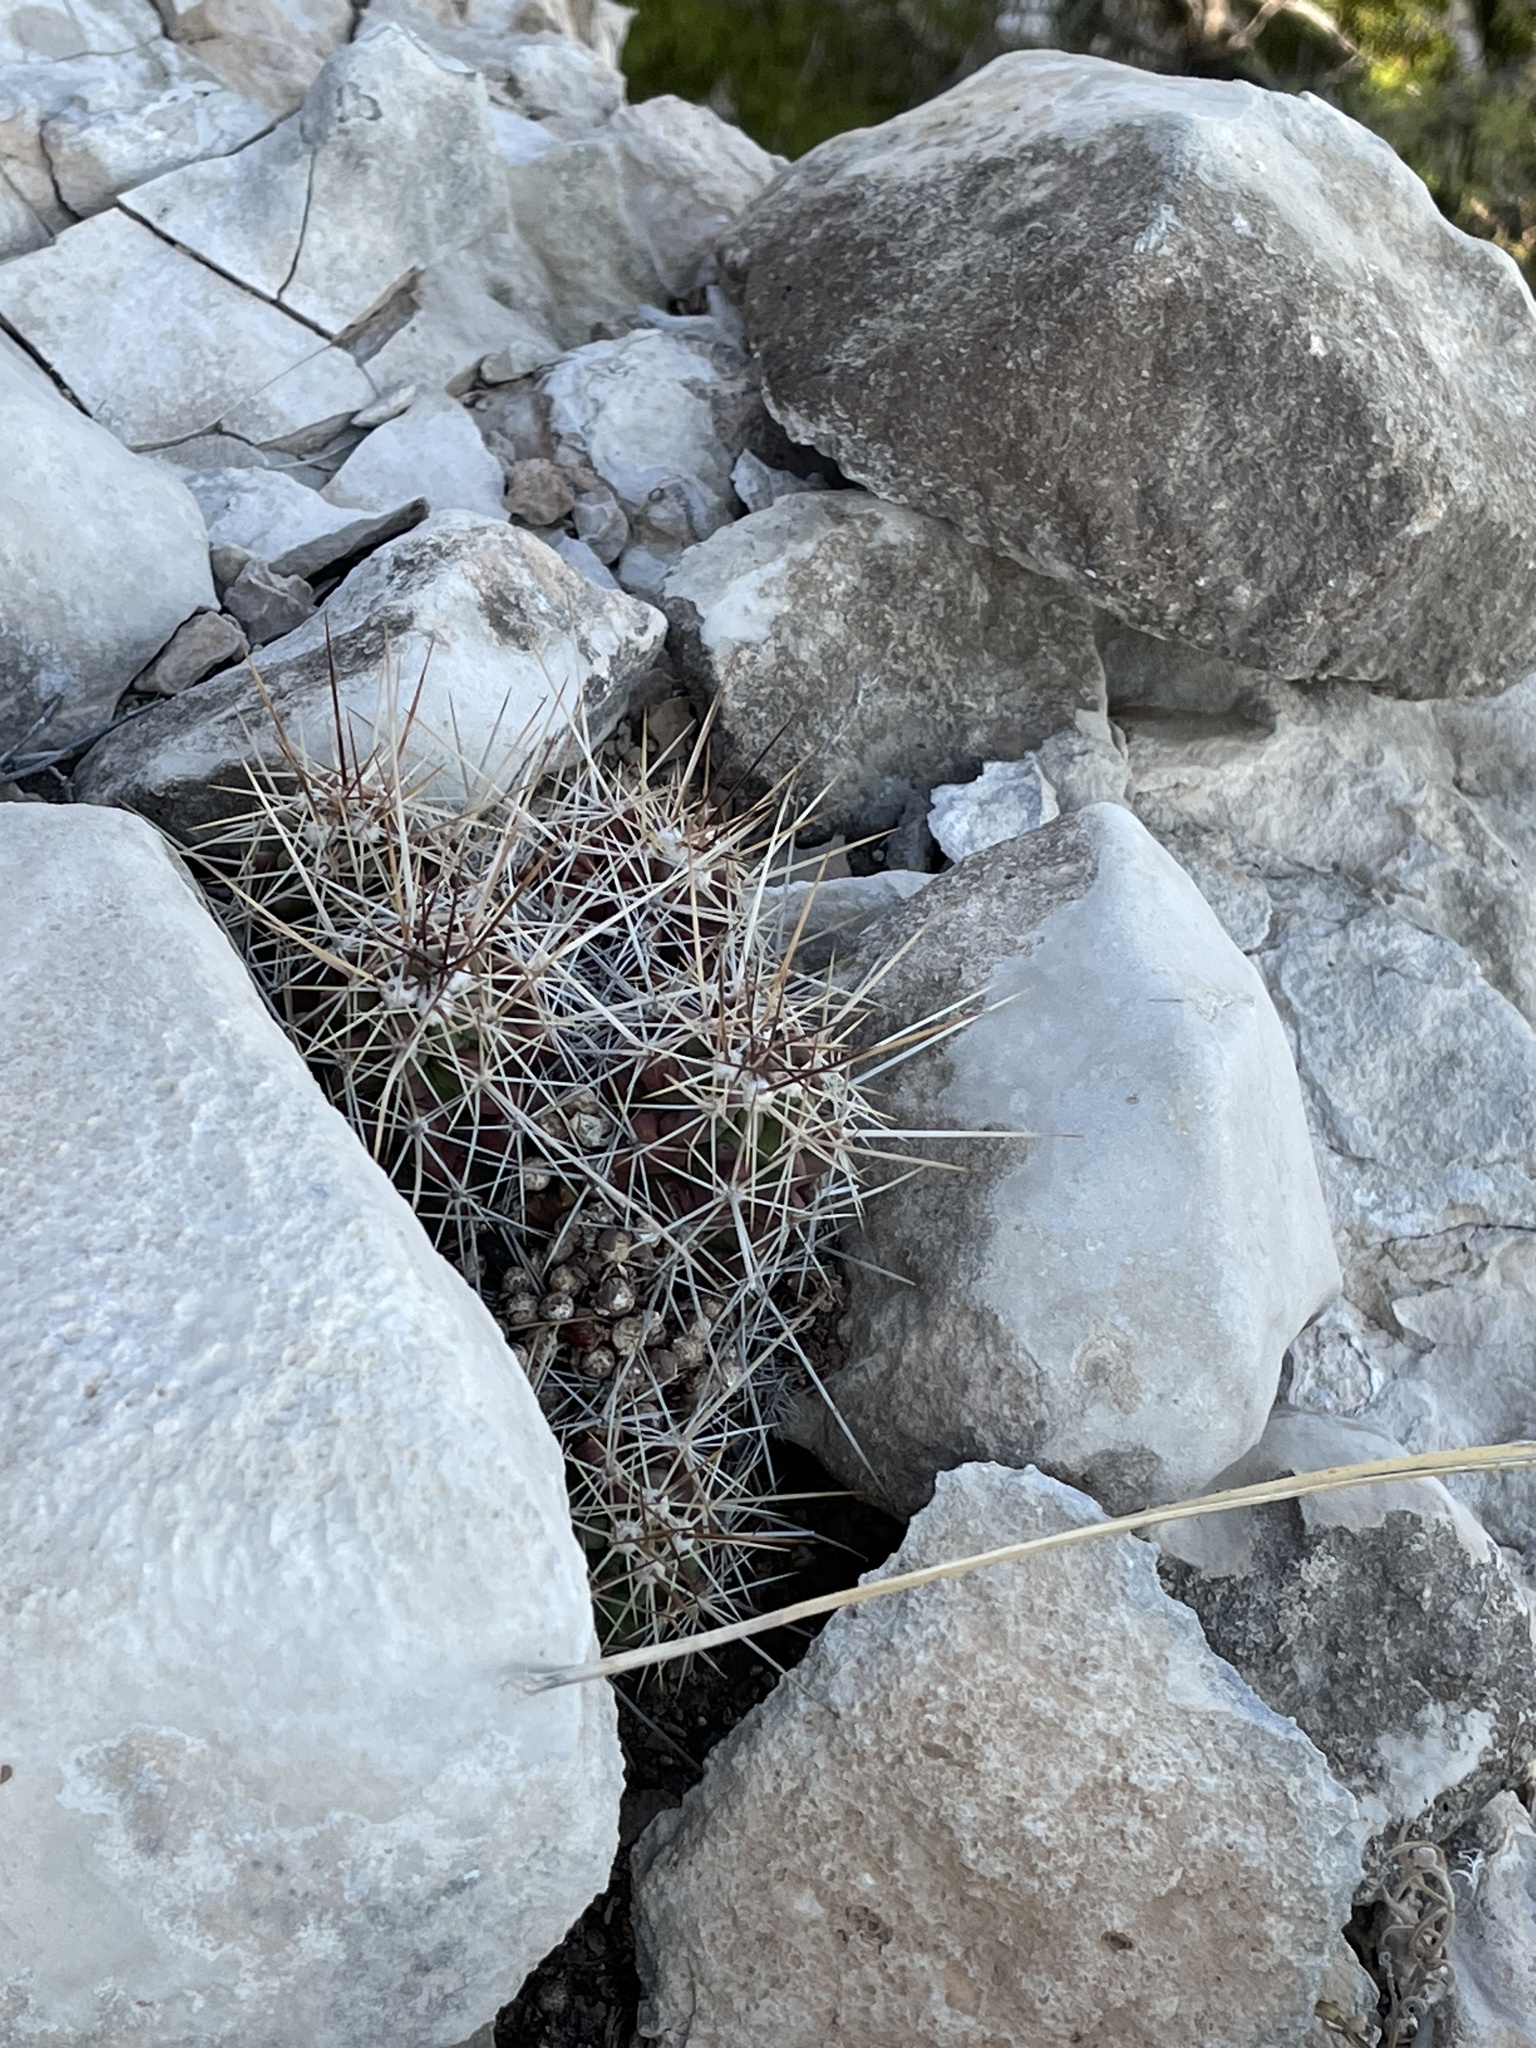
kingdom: Plantae
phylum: Tracheophyta
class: Magnoliopsida
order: Caryophyllales
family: Cactaceae
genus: Echinocereus
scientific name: Echinocereus enneacanthus
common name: Pitaya
